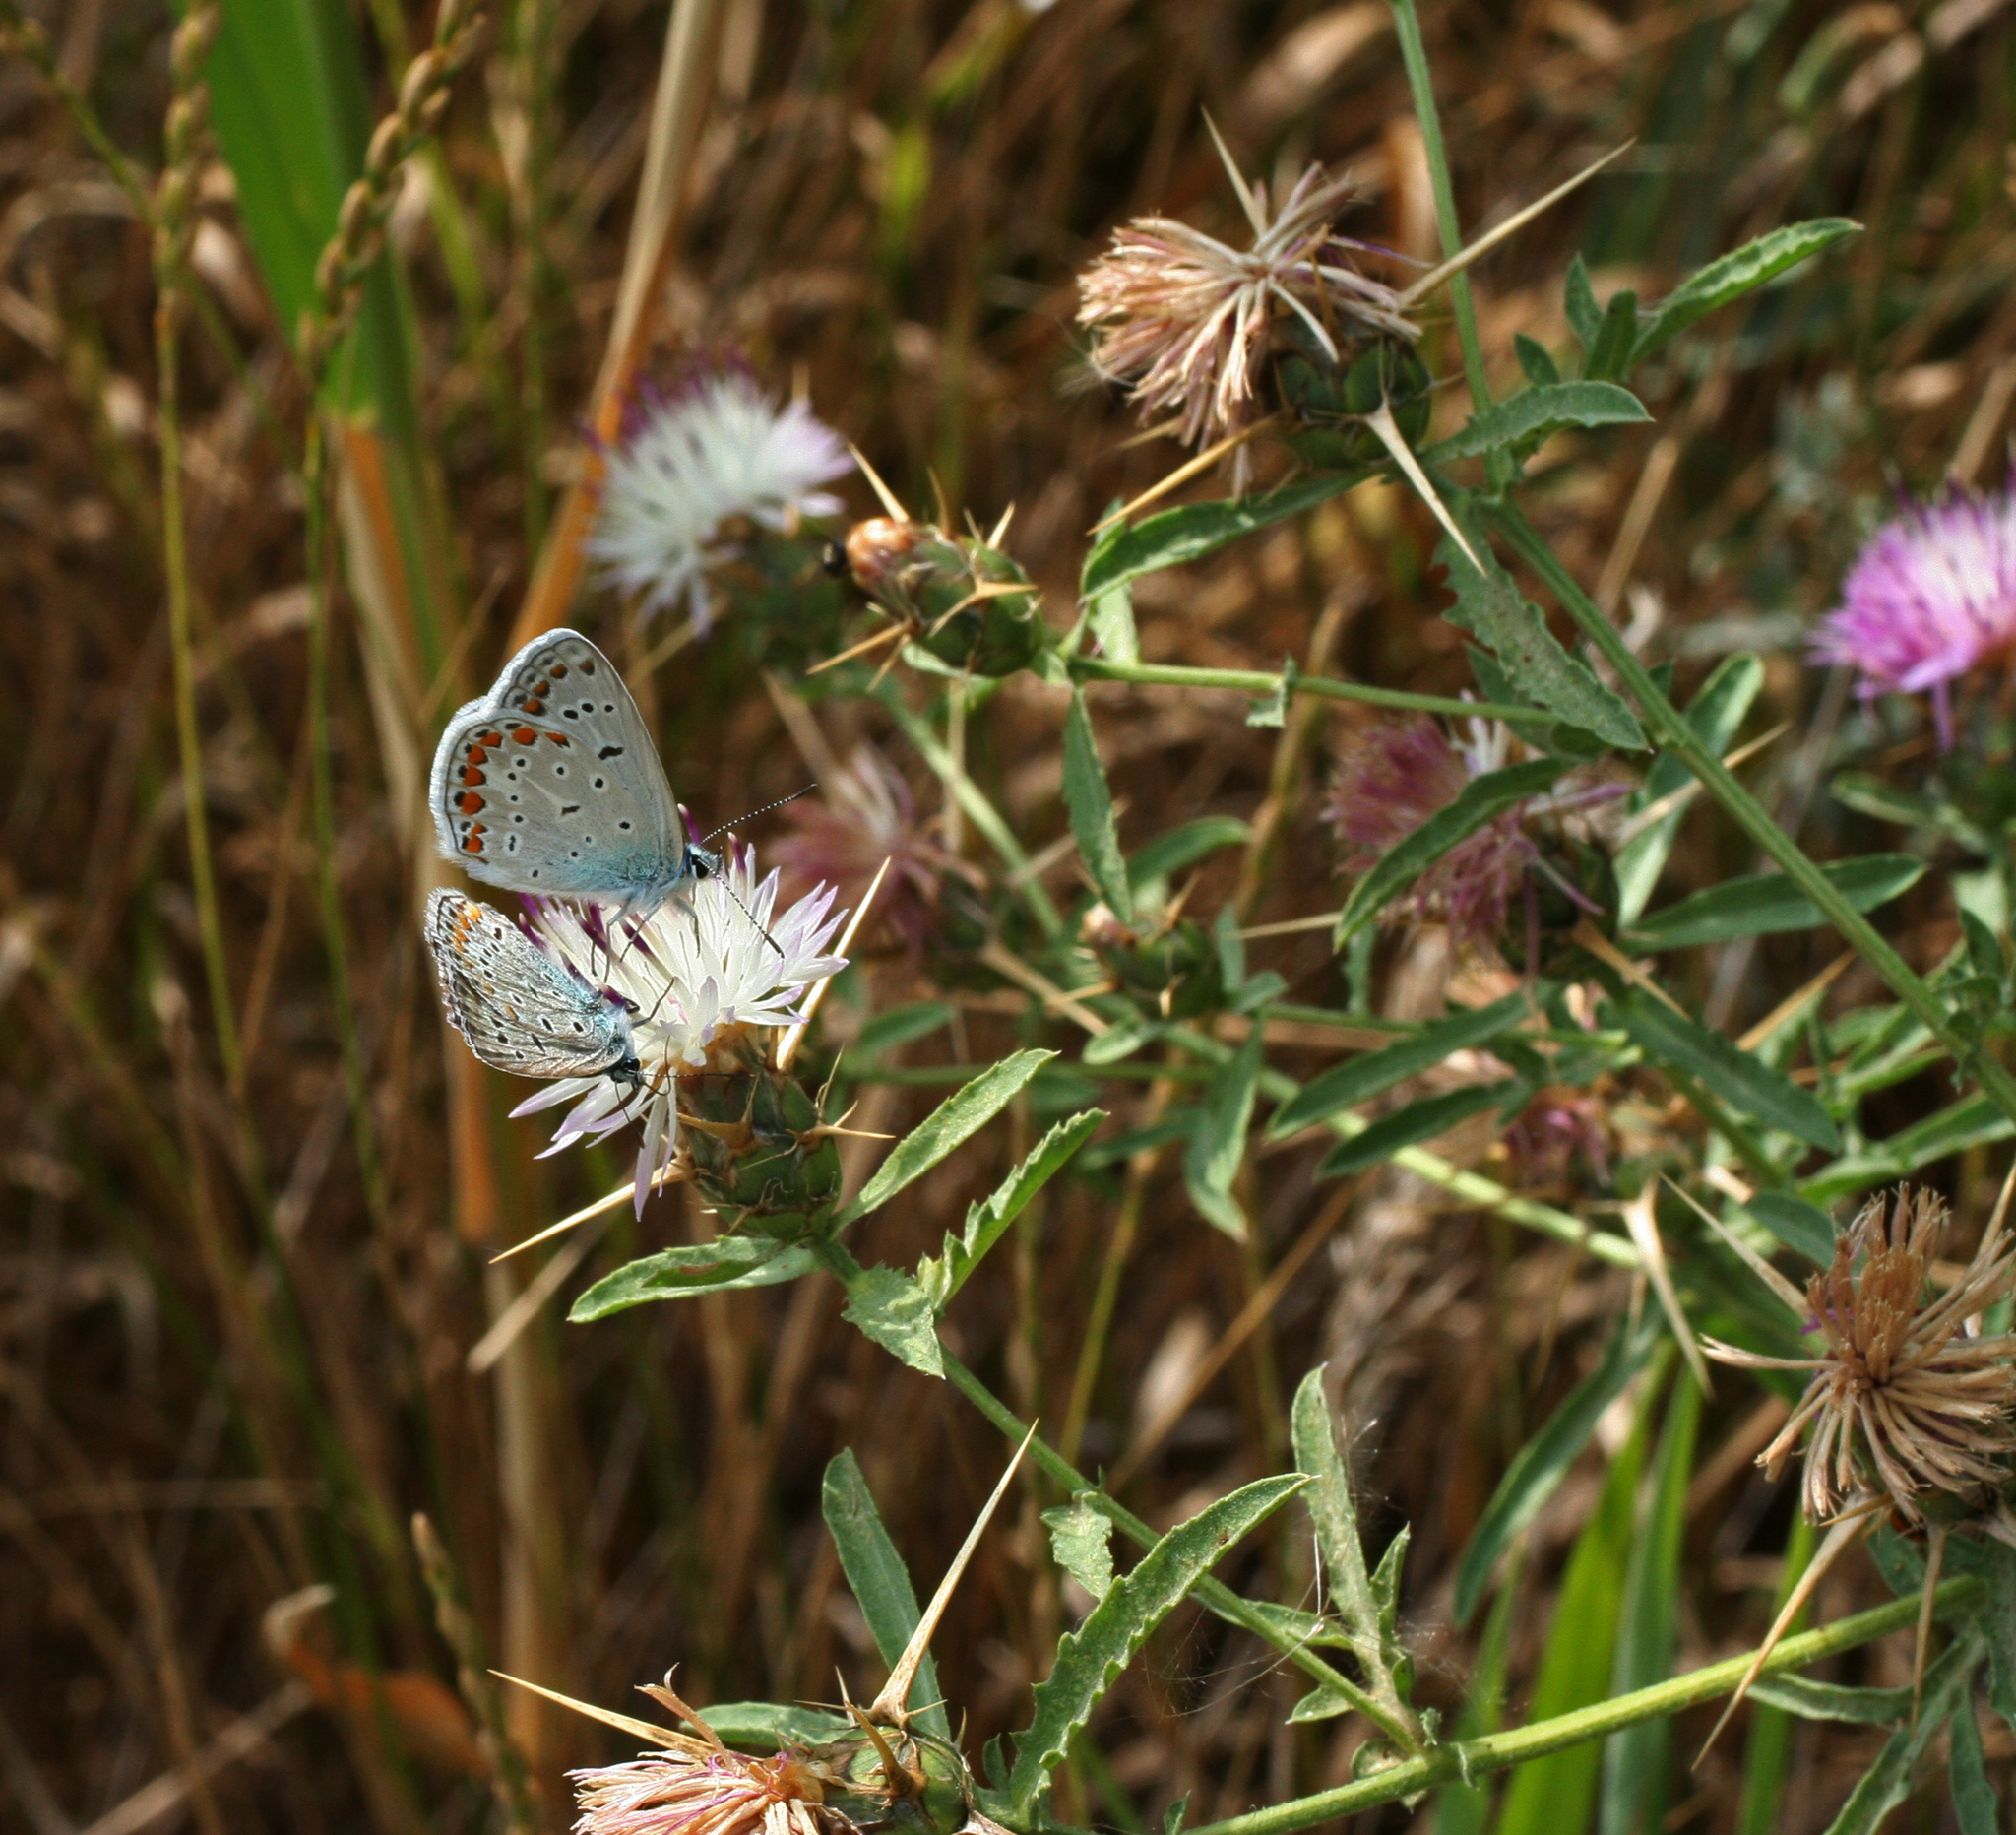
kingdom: Plantae
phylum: Tracheophyta
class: Magnoliopsida
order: Asterales
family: Asteraceae
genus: Centaurea
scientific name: Centaurea iberica
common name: Iberian knapweed
